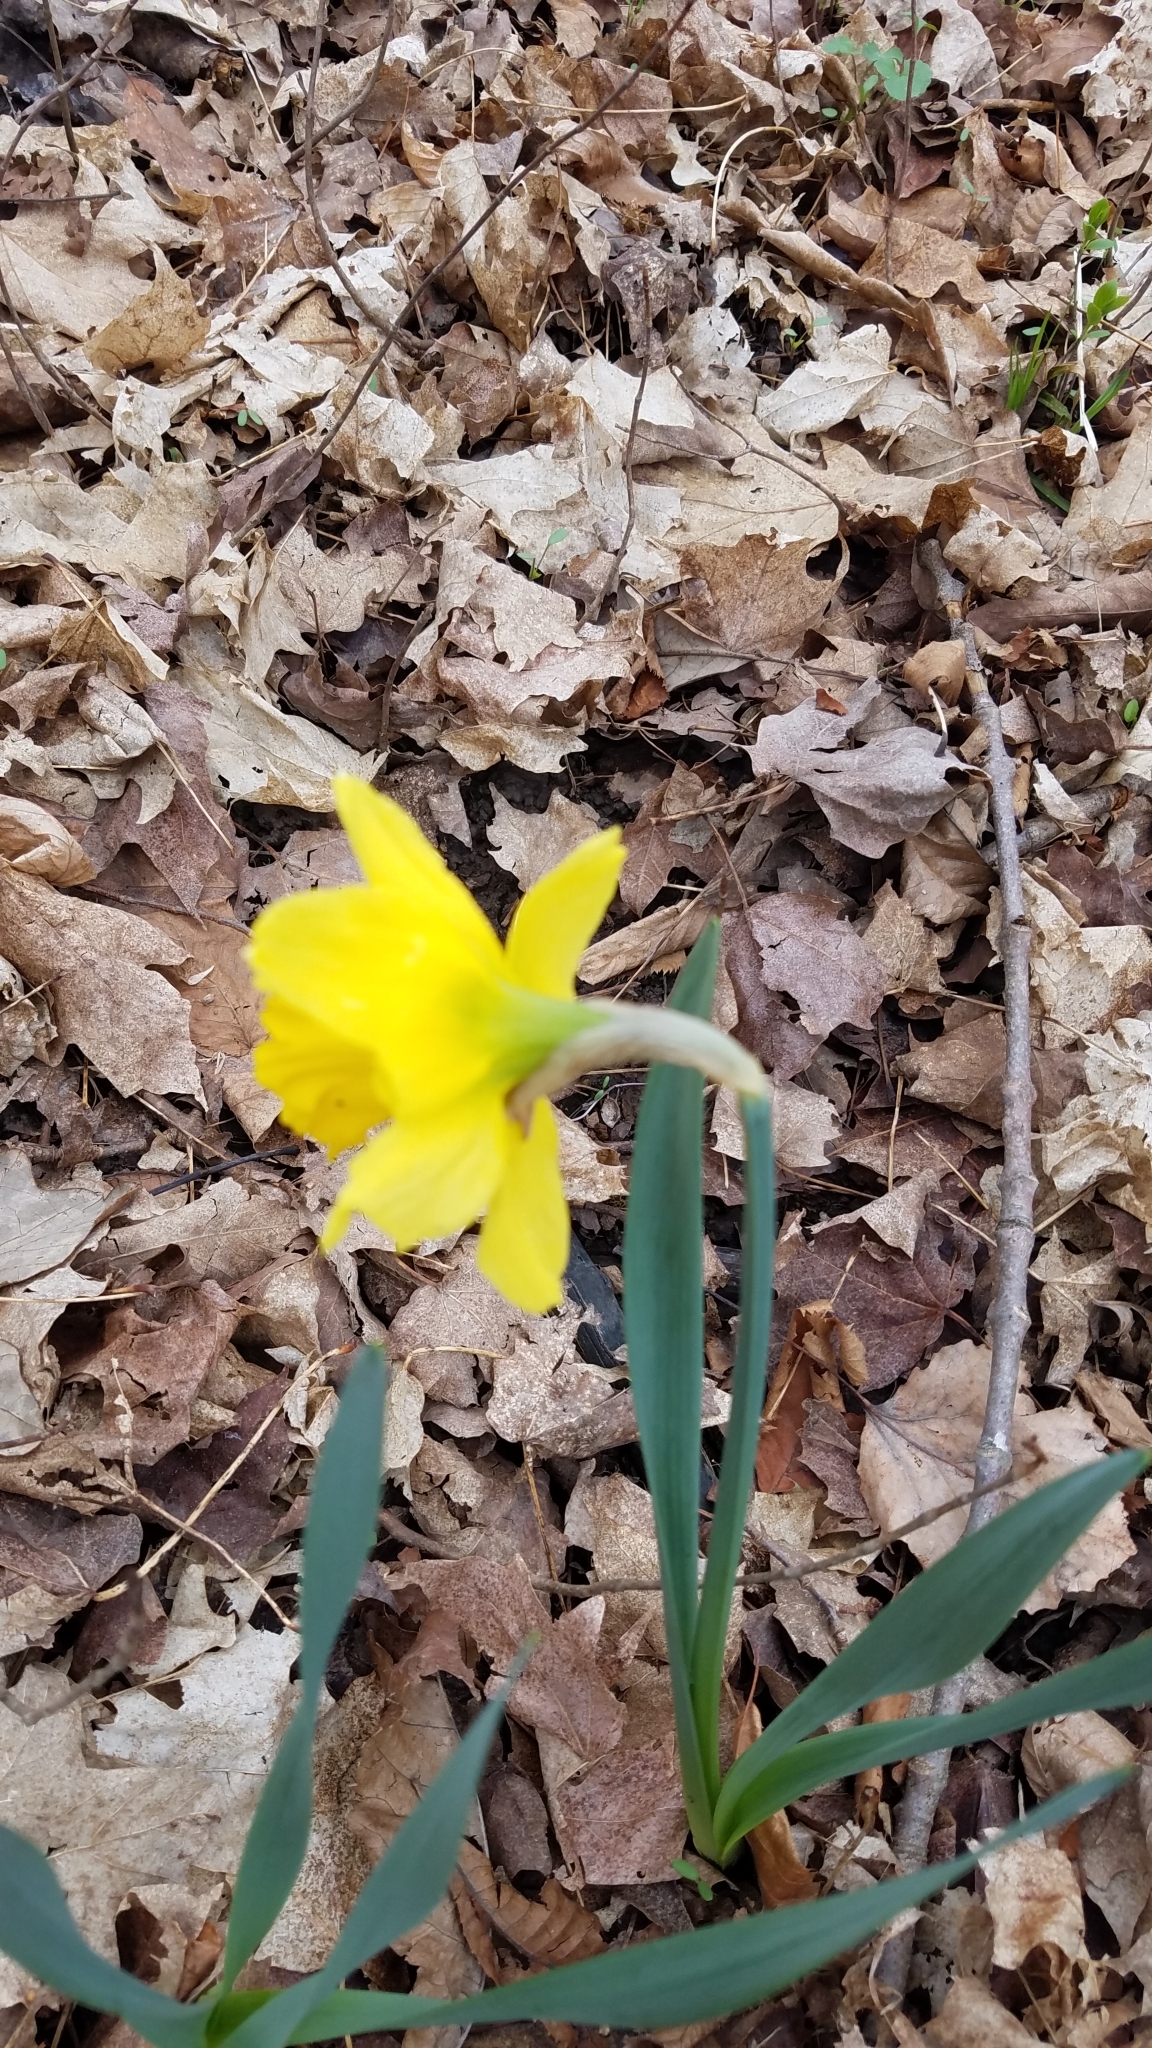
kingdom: Plantae
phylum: Tracheophyta
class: Liliopsida
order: Asparagales
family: Amaryllidaceae
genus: Narcissus
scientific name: Narcissus pseudonarcissus
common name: Daffodil
